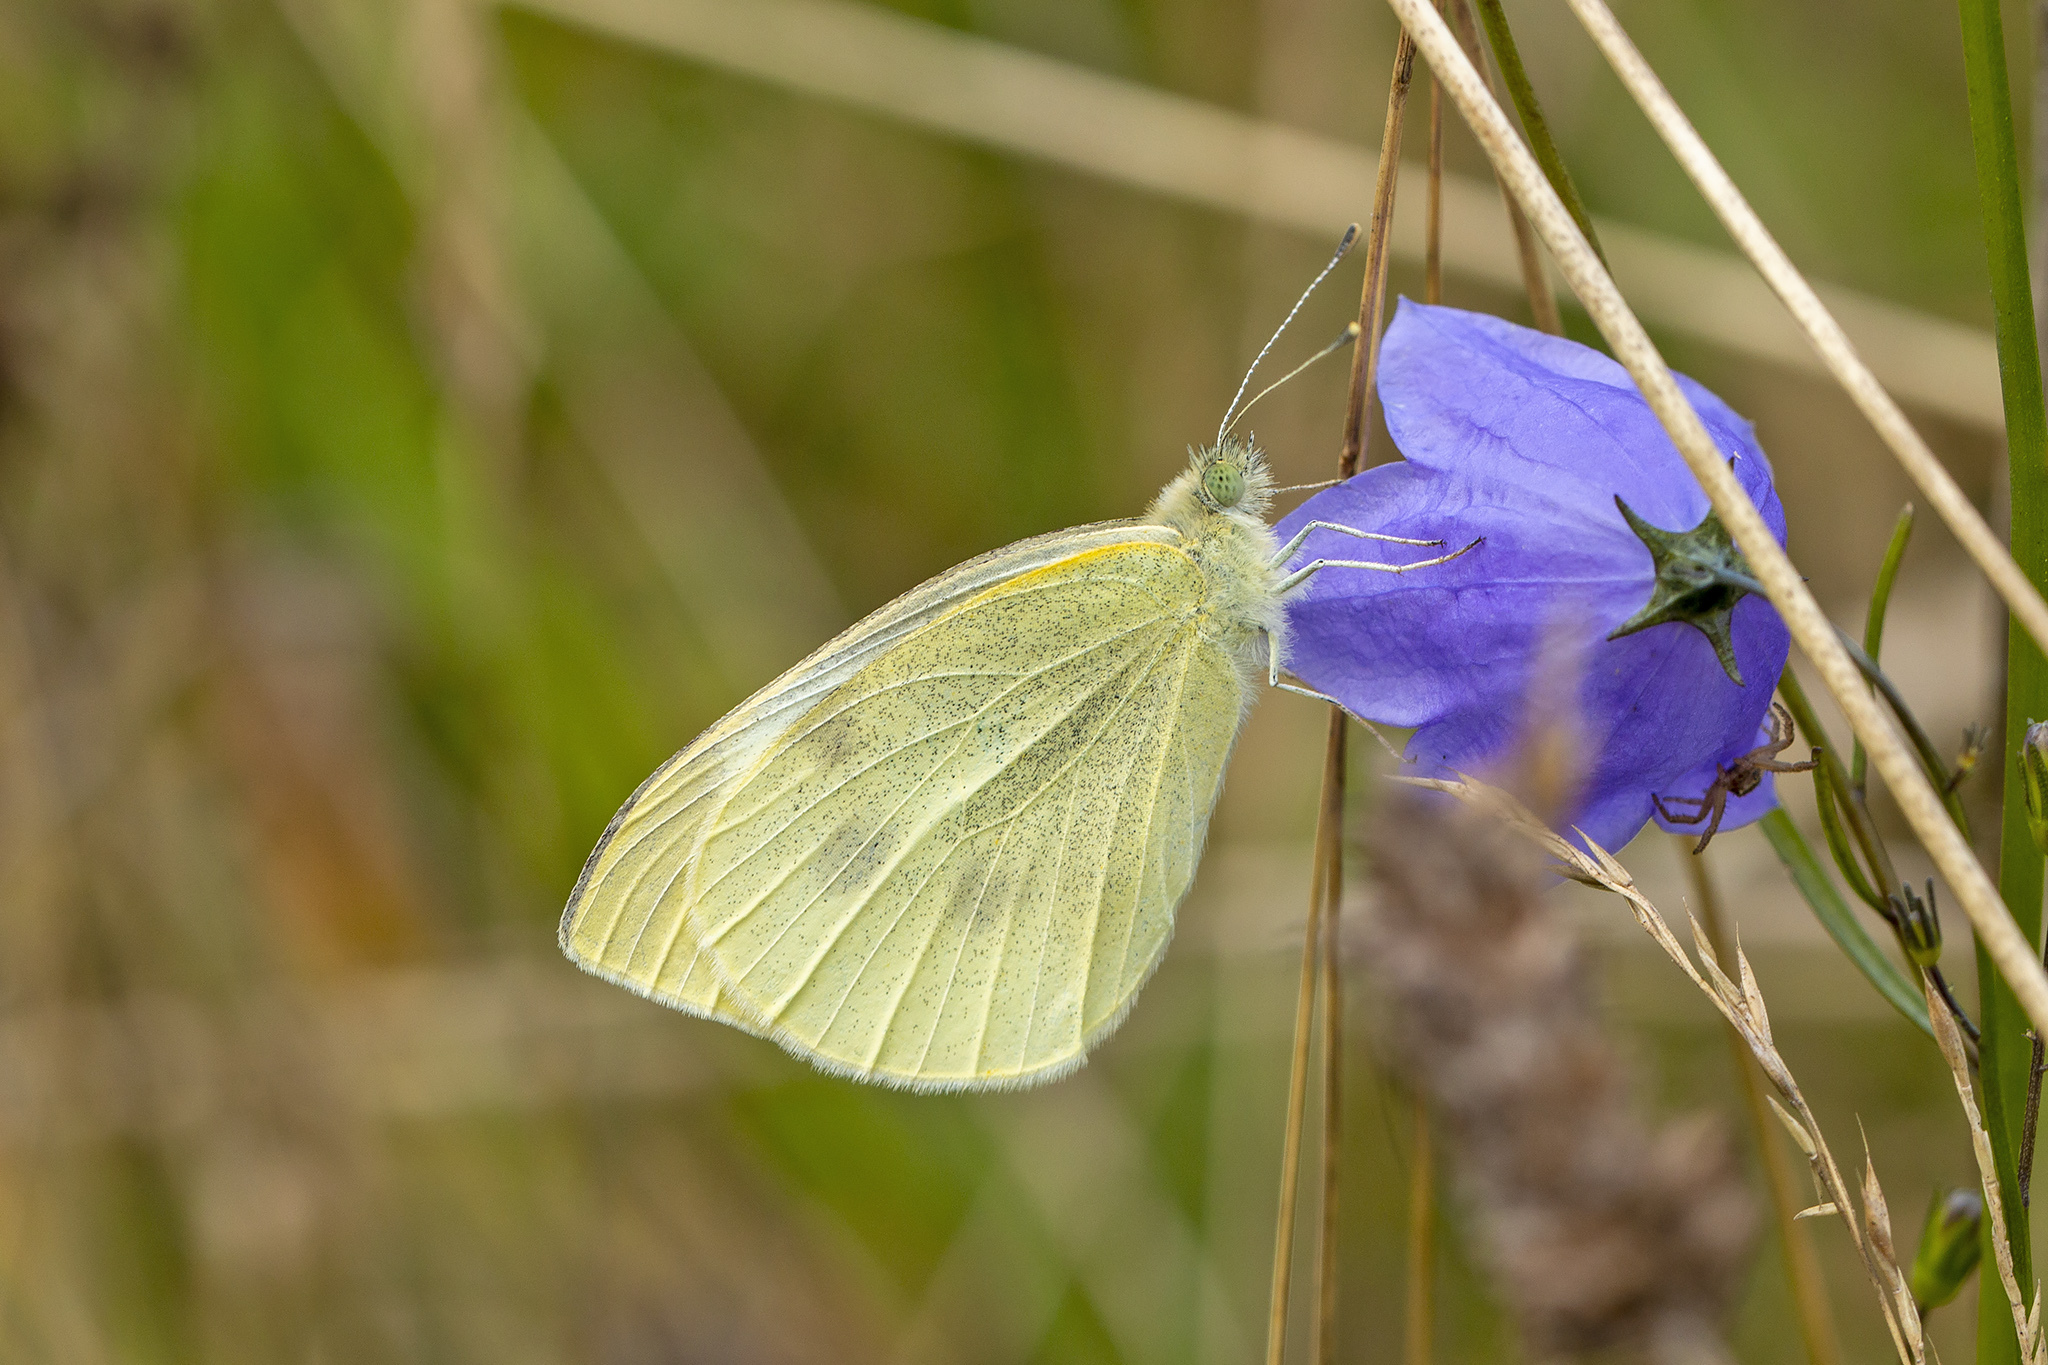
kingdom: Animalia
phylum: Arthropoda
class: Insecta
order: Lepidoptera
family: Pieridae
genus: Pieris
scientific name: Pieris brassicae
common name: Large white
